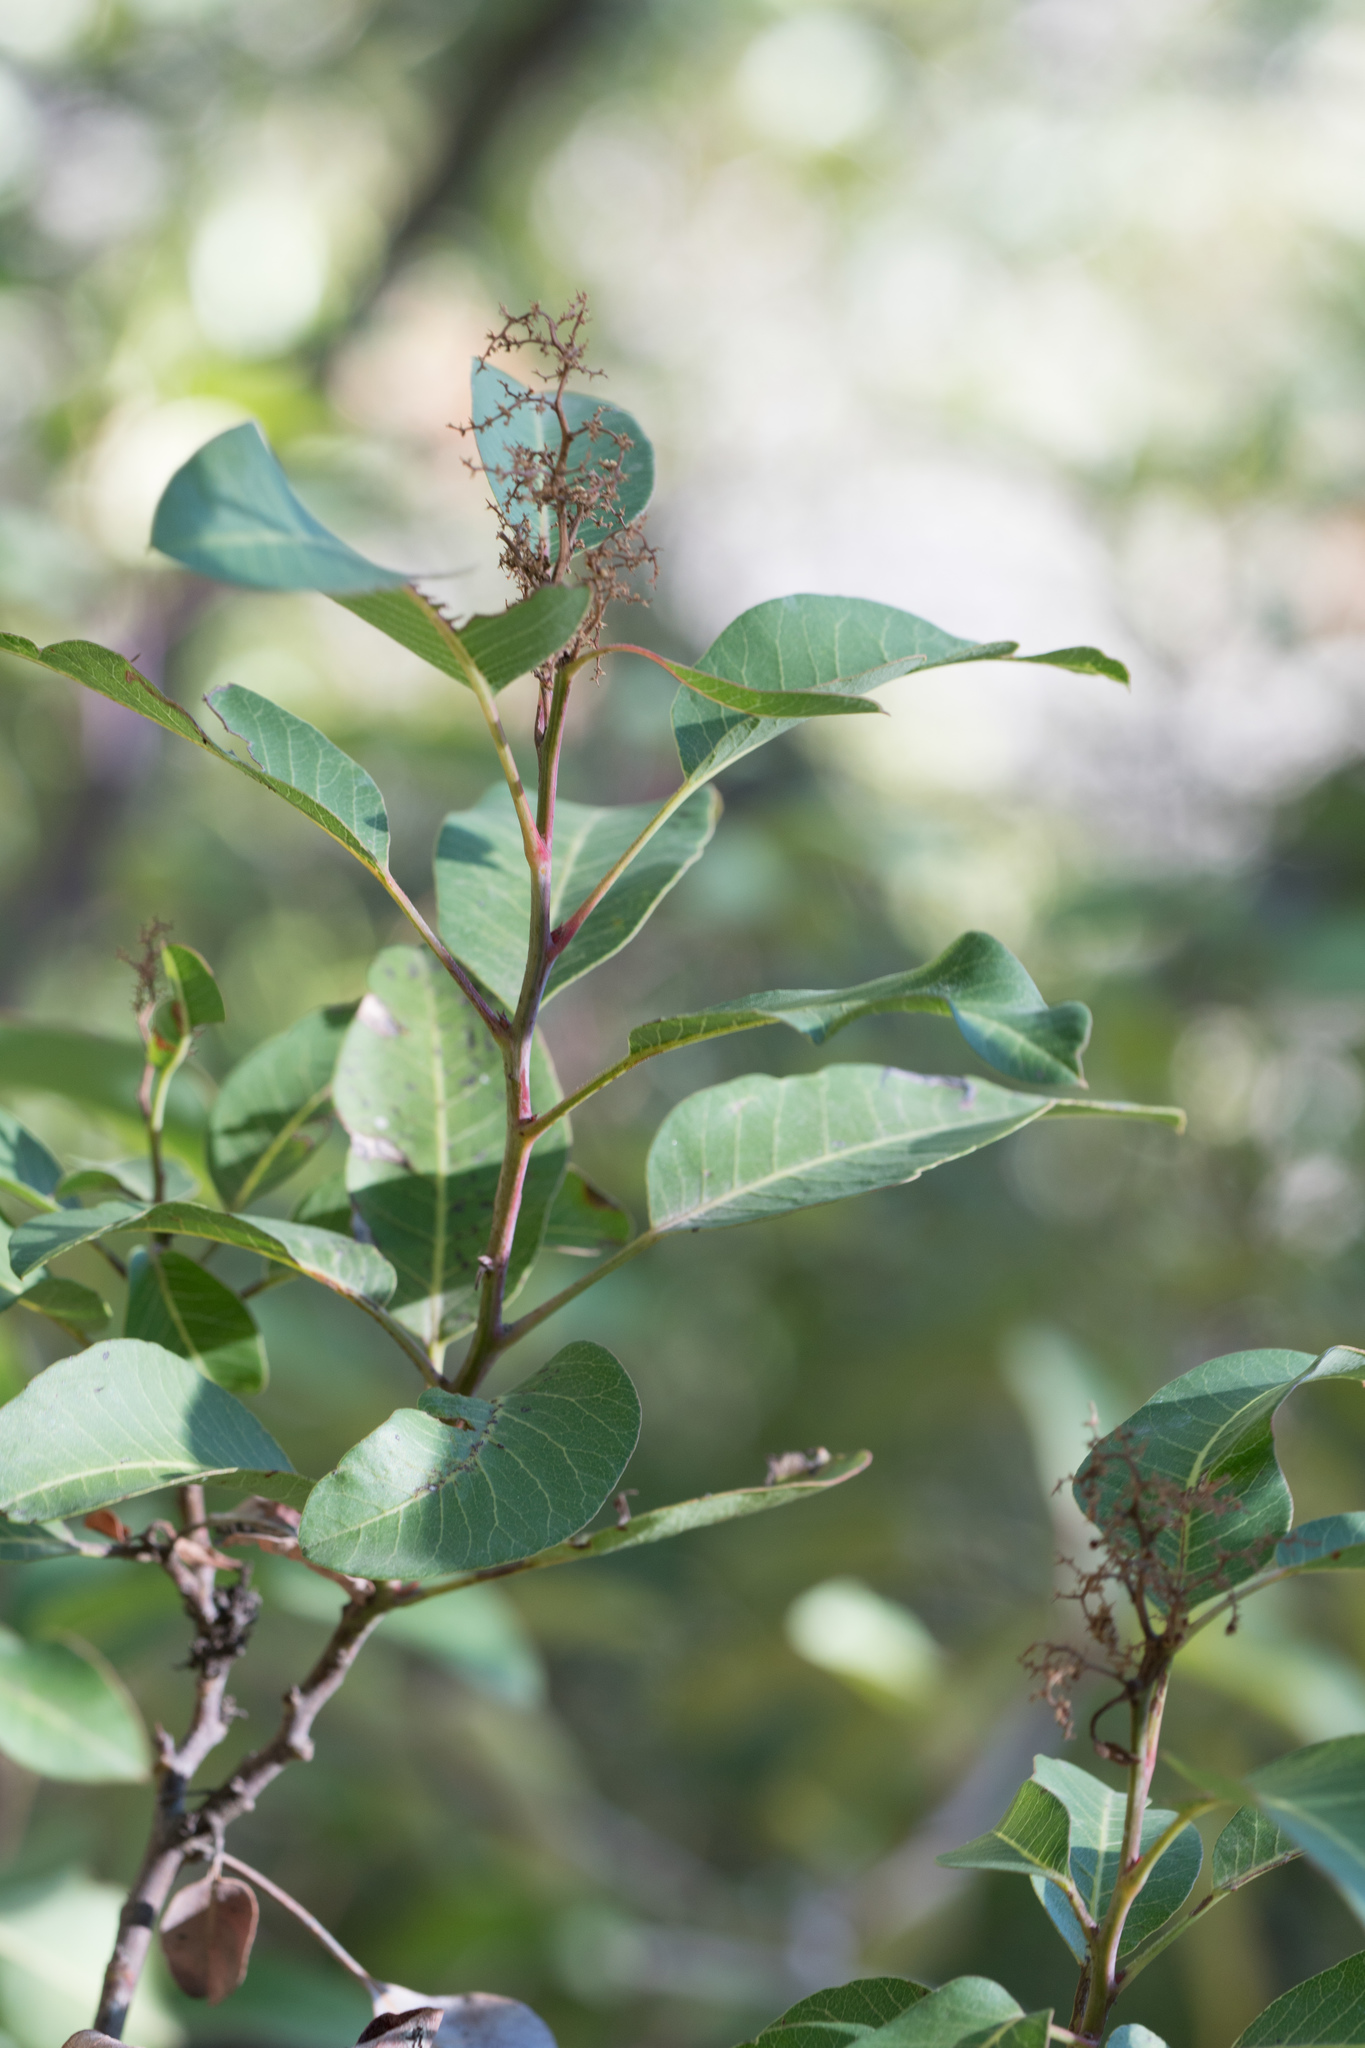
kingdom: Plantae
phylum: Tracheophyta
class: Magnoliopsida
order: Sapindales
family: Anacardiaceae
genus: Malosma
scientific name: Malosma laurina
